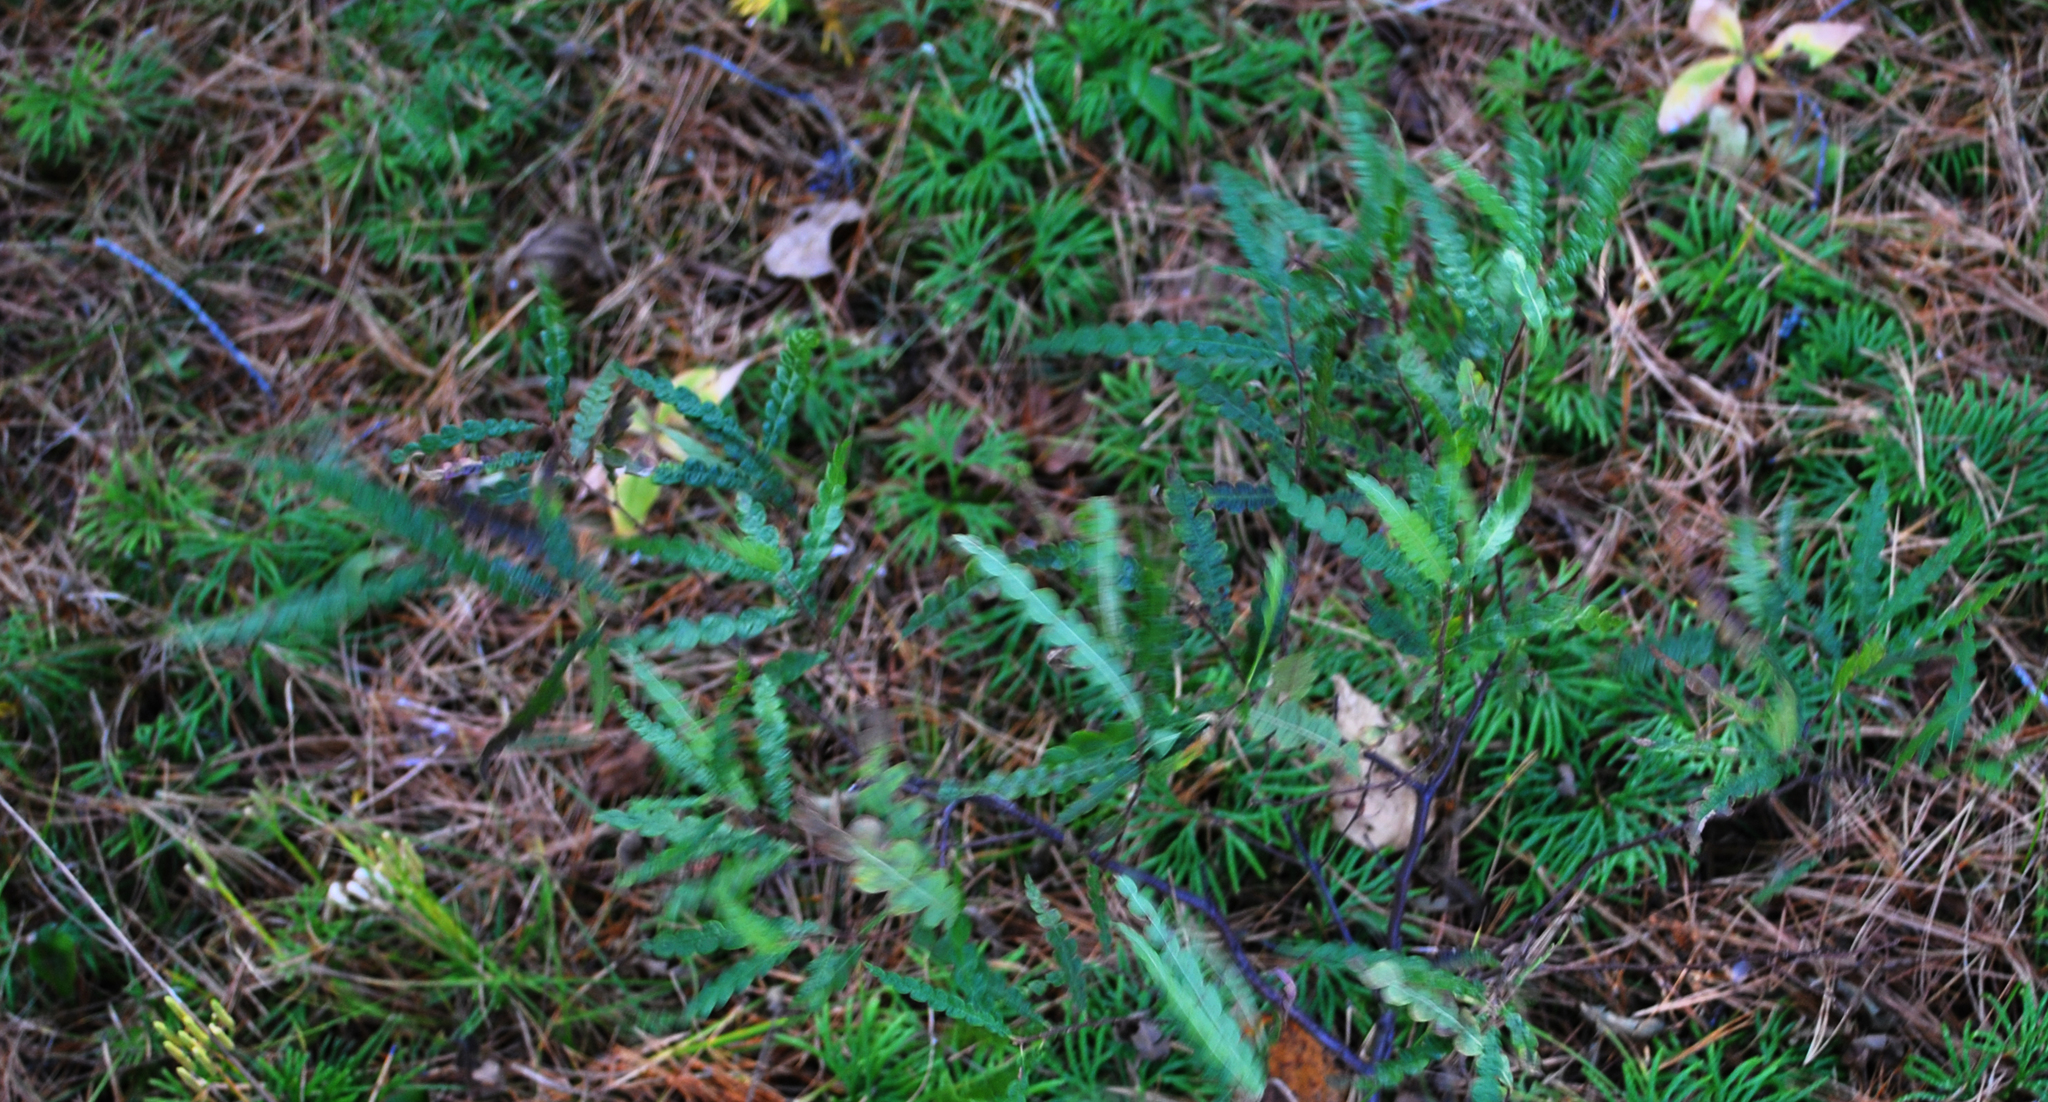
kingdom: Plantae
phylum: Tracheophyta
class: Magnoliopsida
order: Fagales
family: Myricaceae
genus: Comptonia
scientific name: Comptonia peregrina
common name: Sweet-fern
